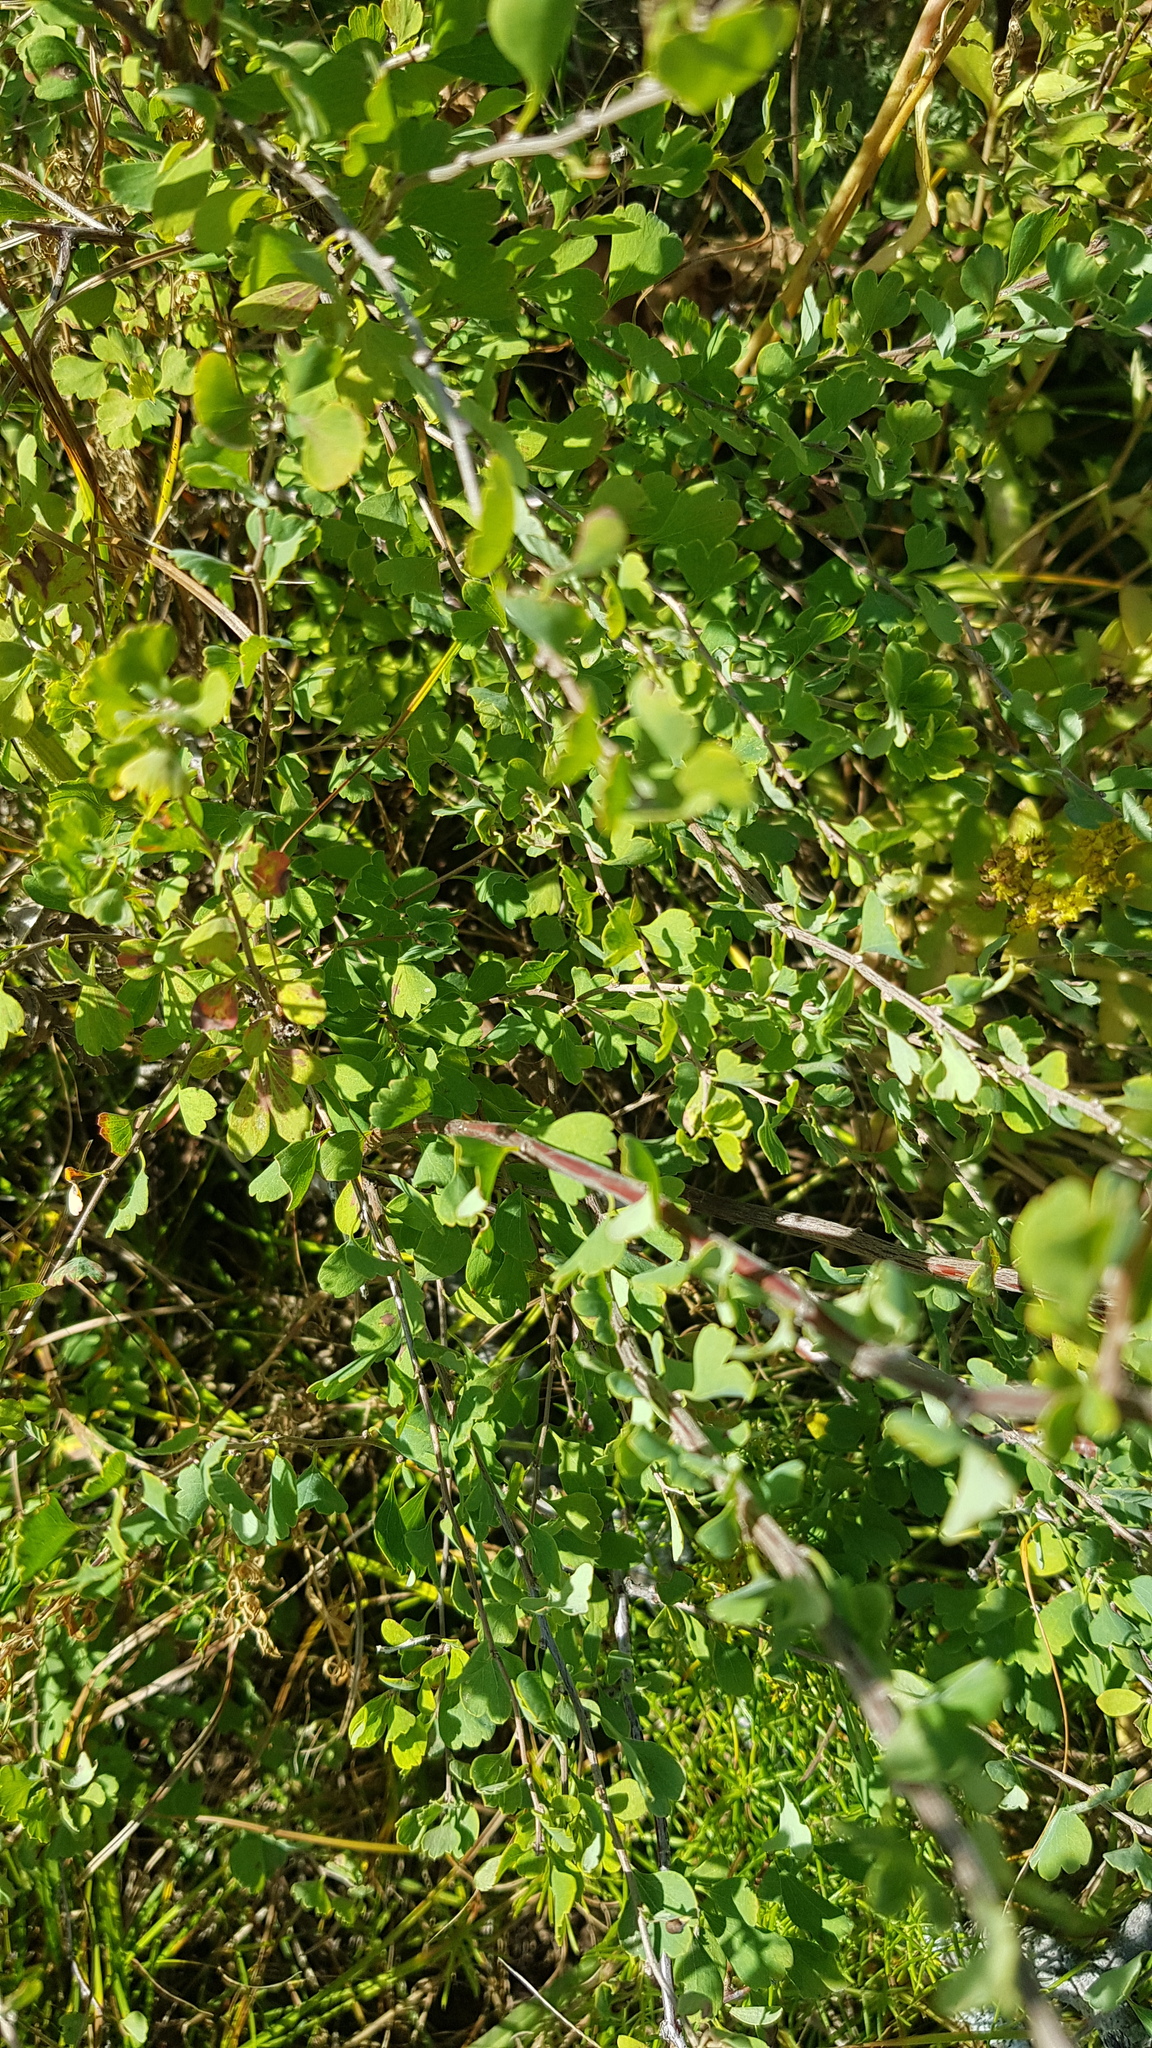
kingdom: Plantae
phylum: Tracheophyta
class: Magnoliopsida
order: Rosales
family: Rosaceae
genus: Spiraea
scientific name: Spiraea aquilegifolia
